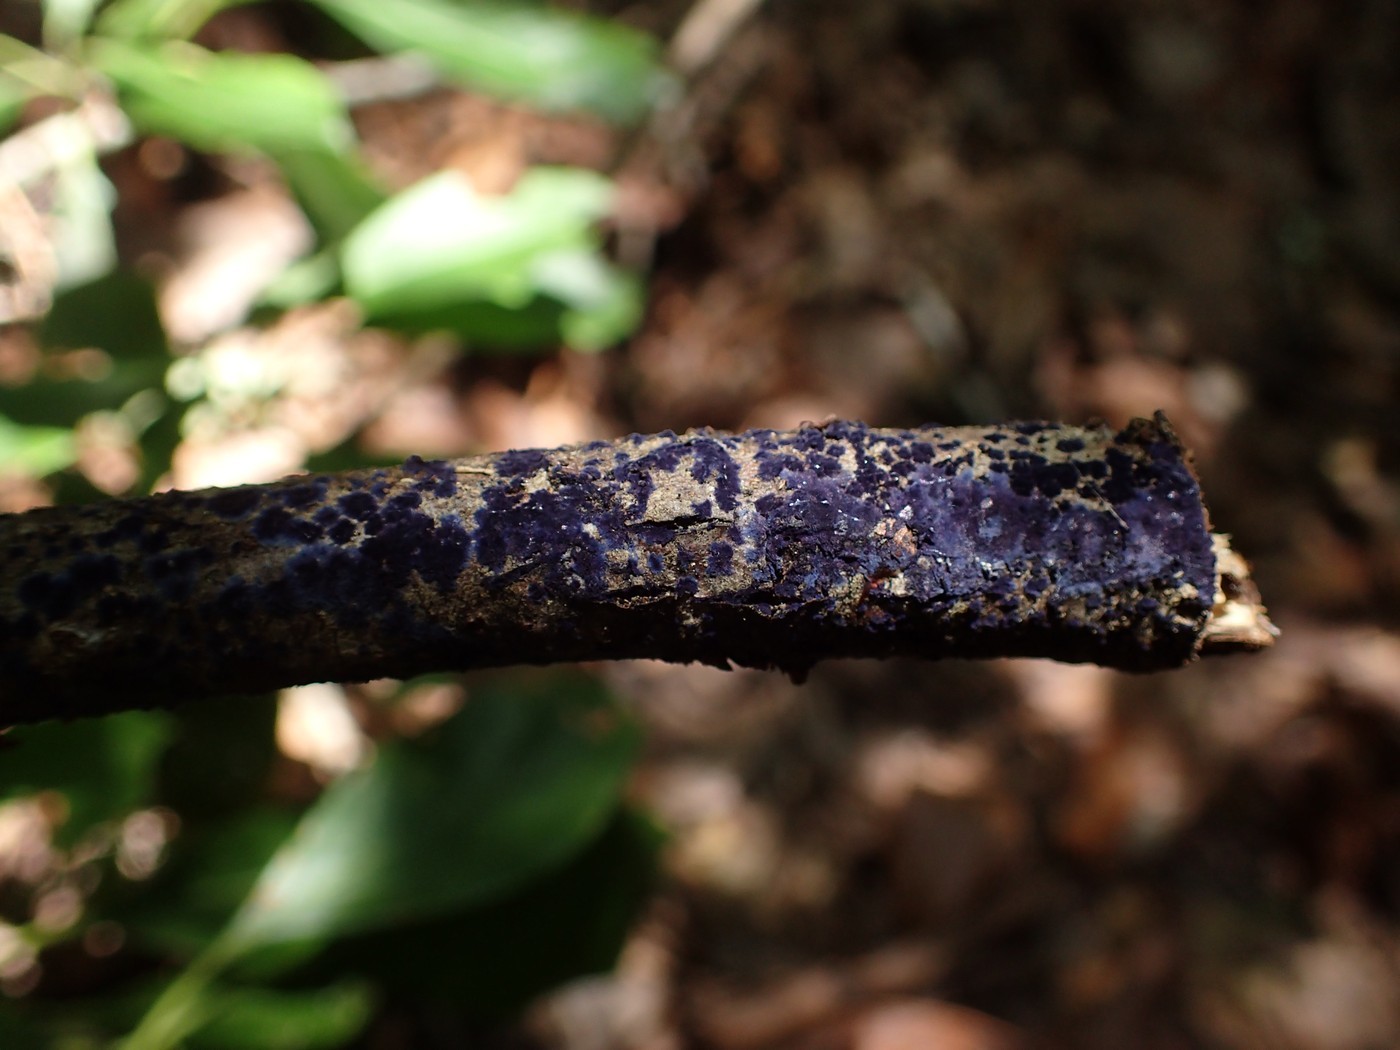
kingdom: Fungi
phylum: Basidiomycota
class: Agaricomycetes
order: Polyporales
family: Phanerochaetaceae
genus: Terana
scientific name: Terana coerulea
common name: Cobalt crust
